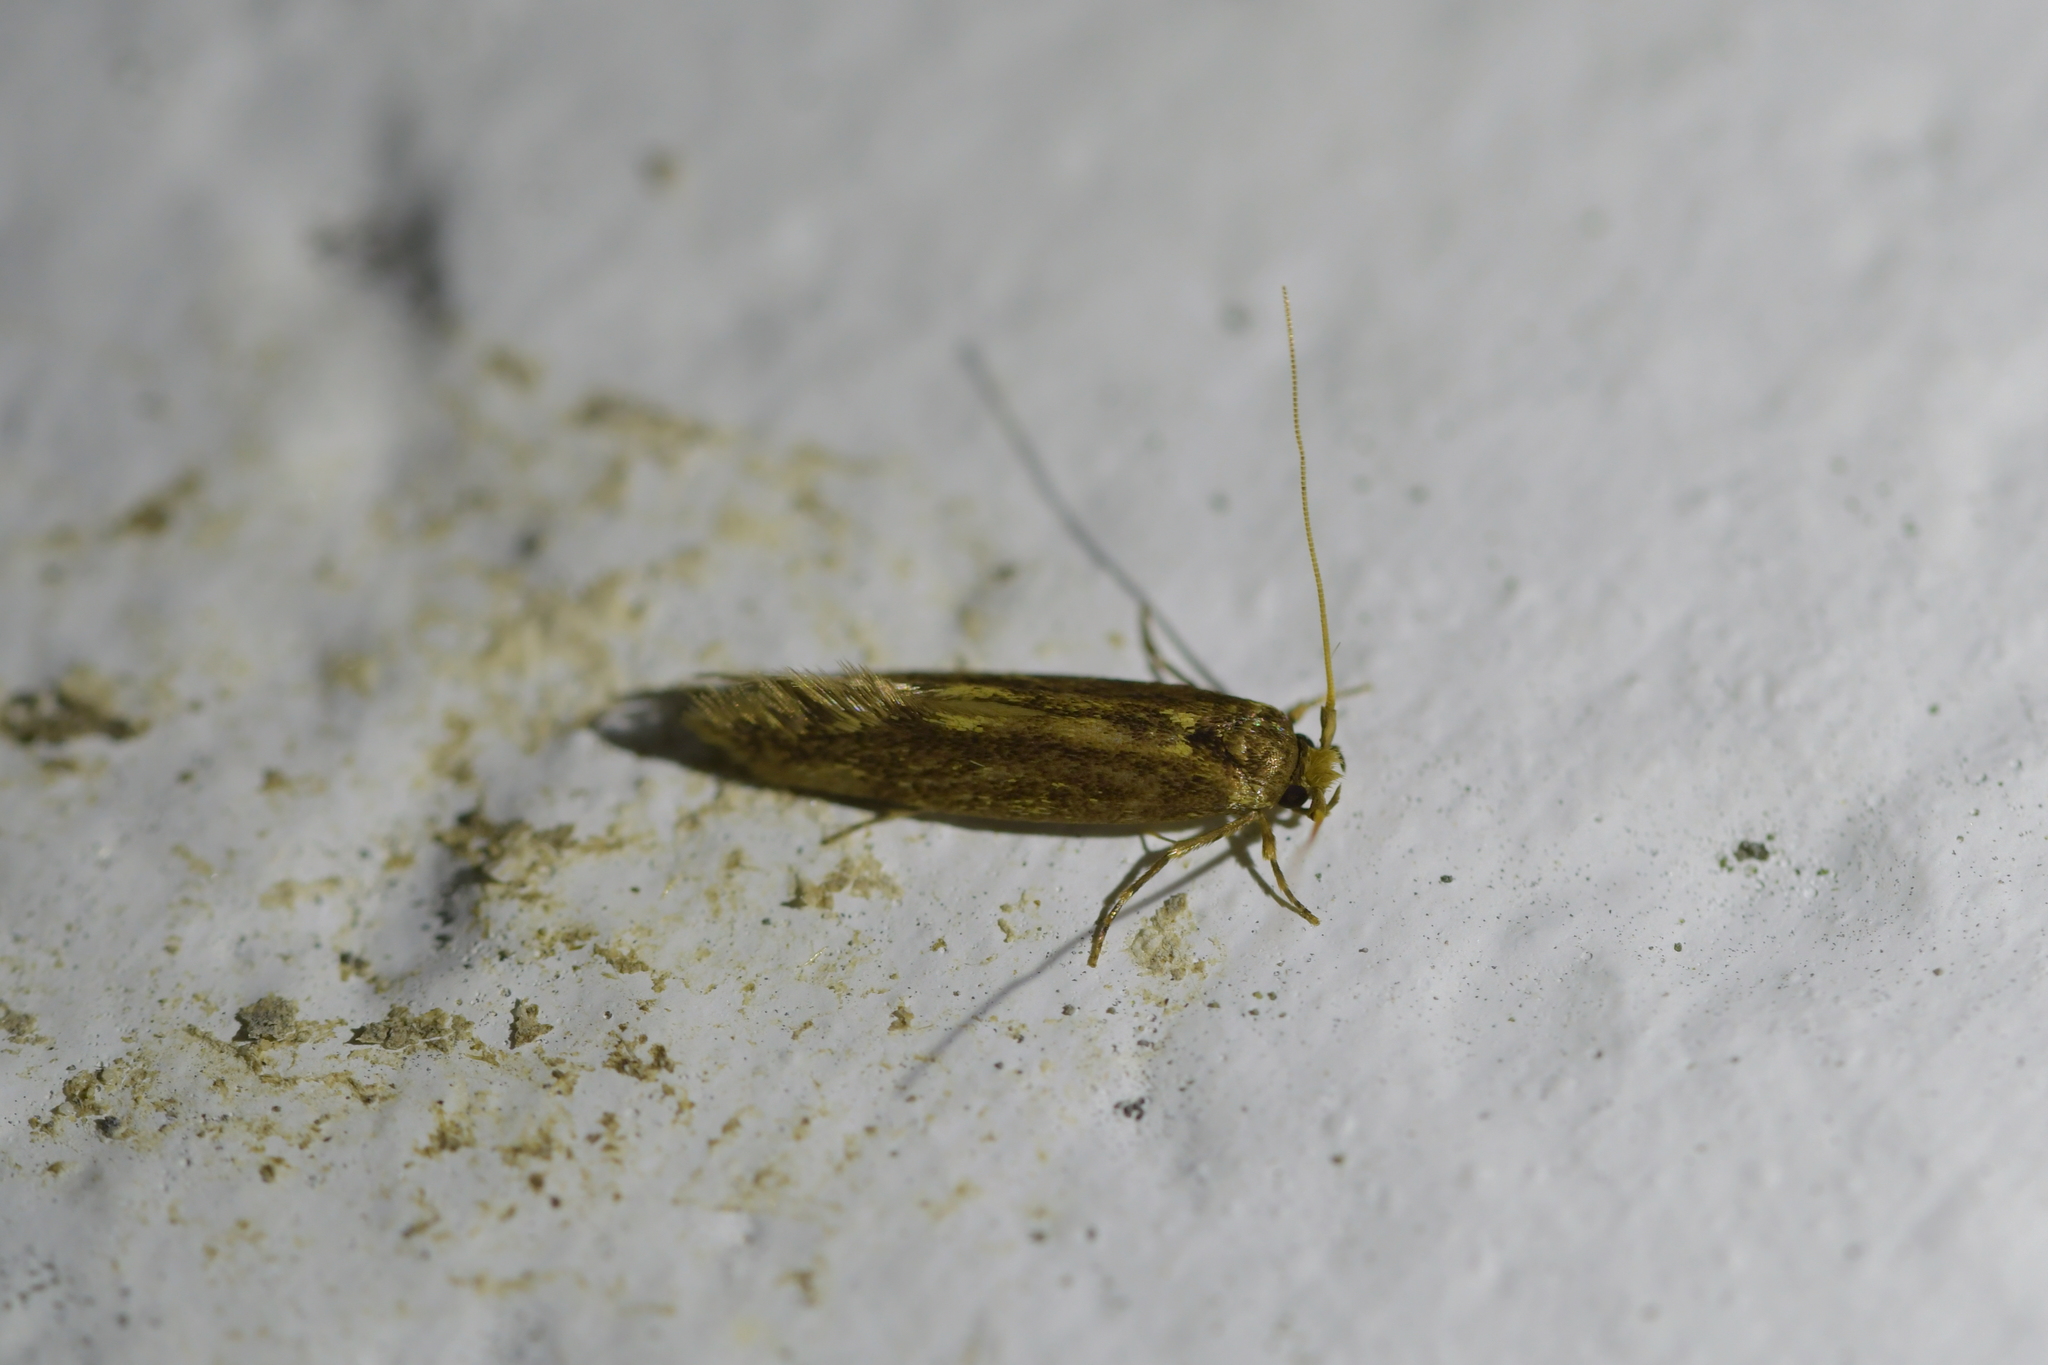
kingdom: Animalia
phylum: Arthropoda
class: Insecta
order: Lepidoptera
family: Tineidae
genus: Opogona
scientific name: Opogona omoscopa
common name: Moth
